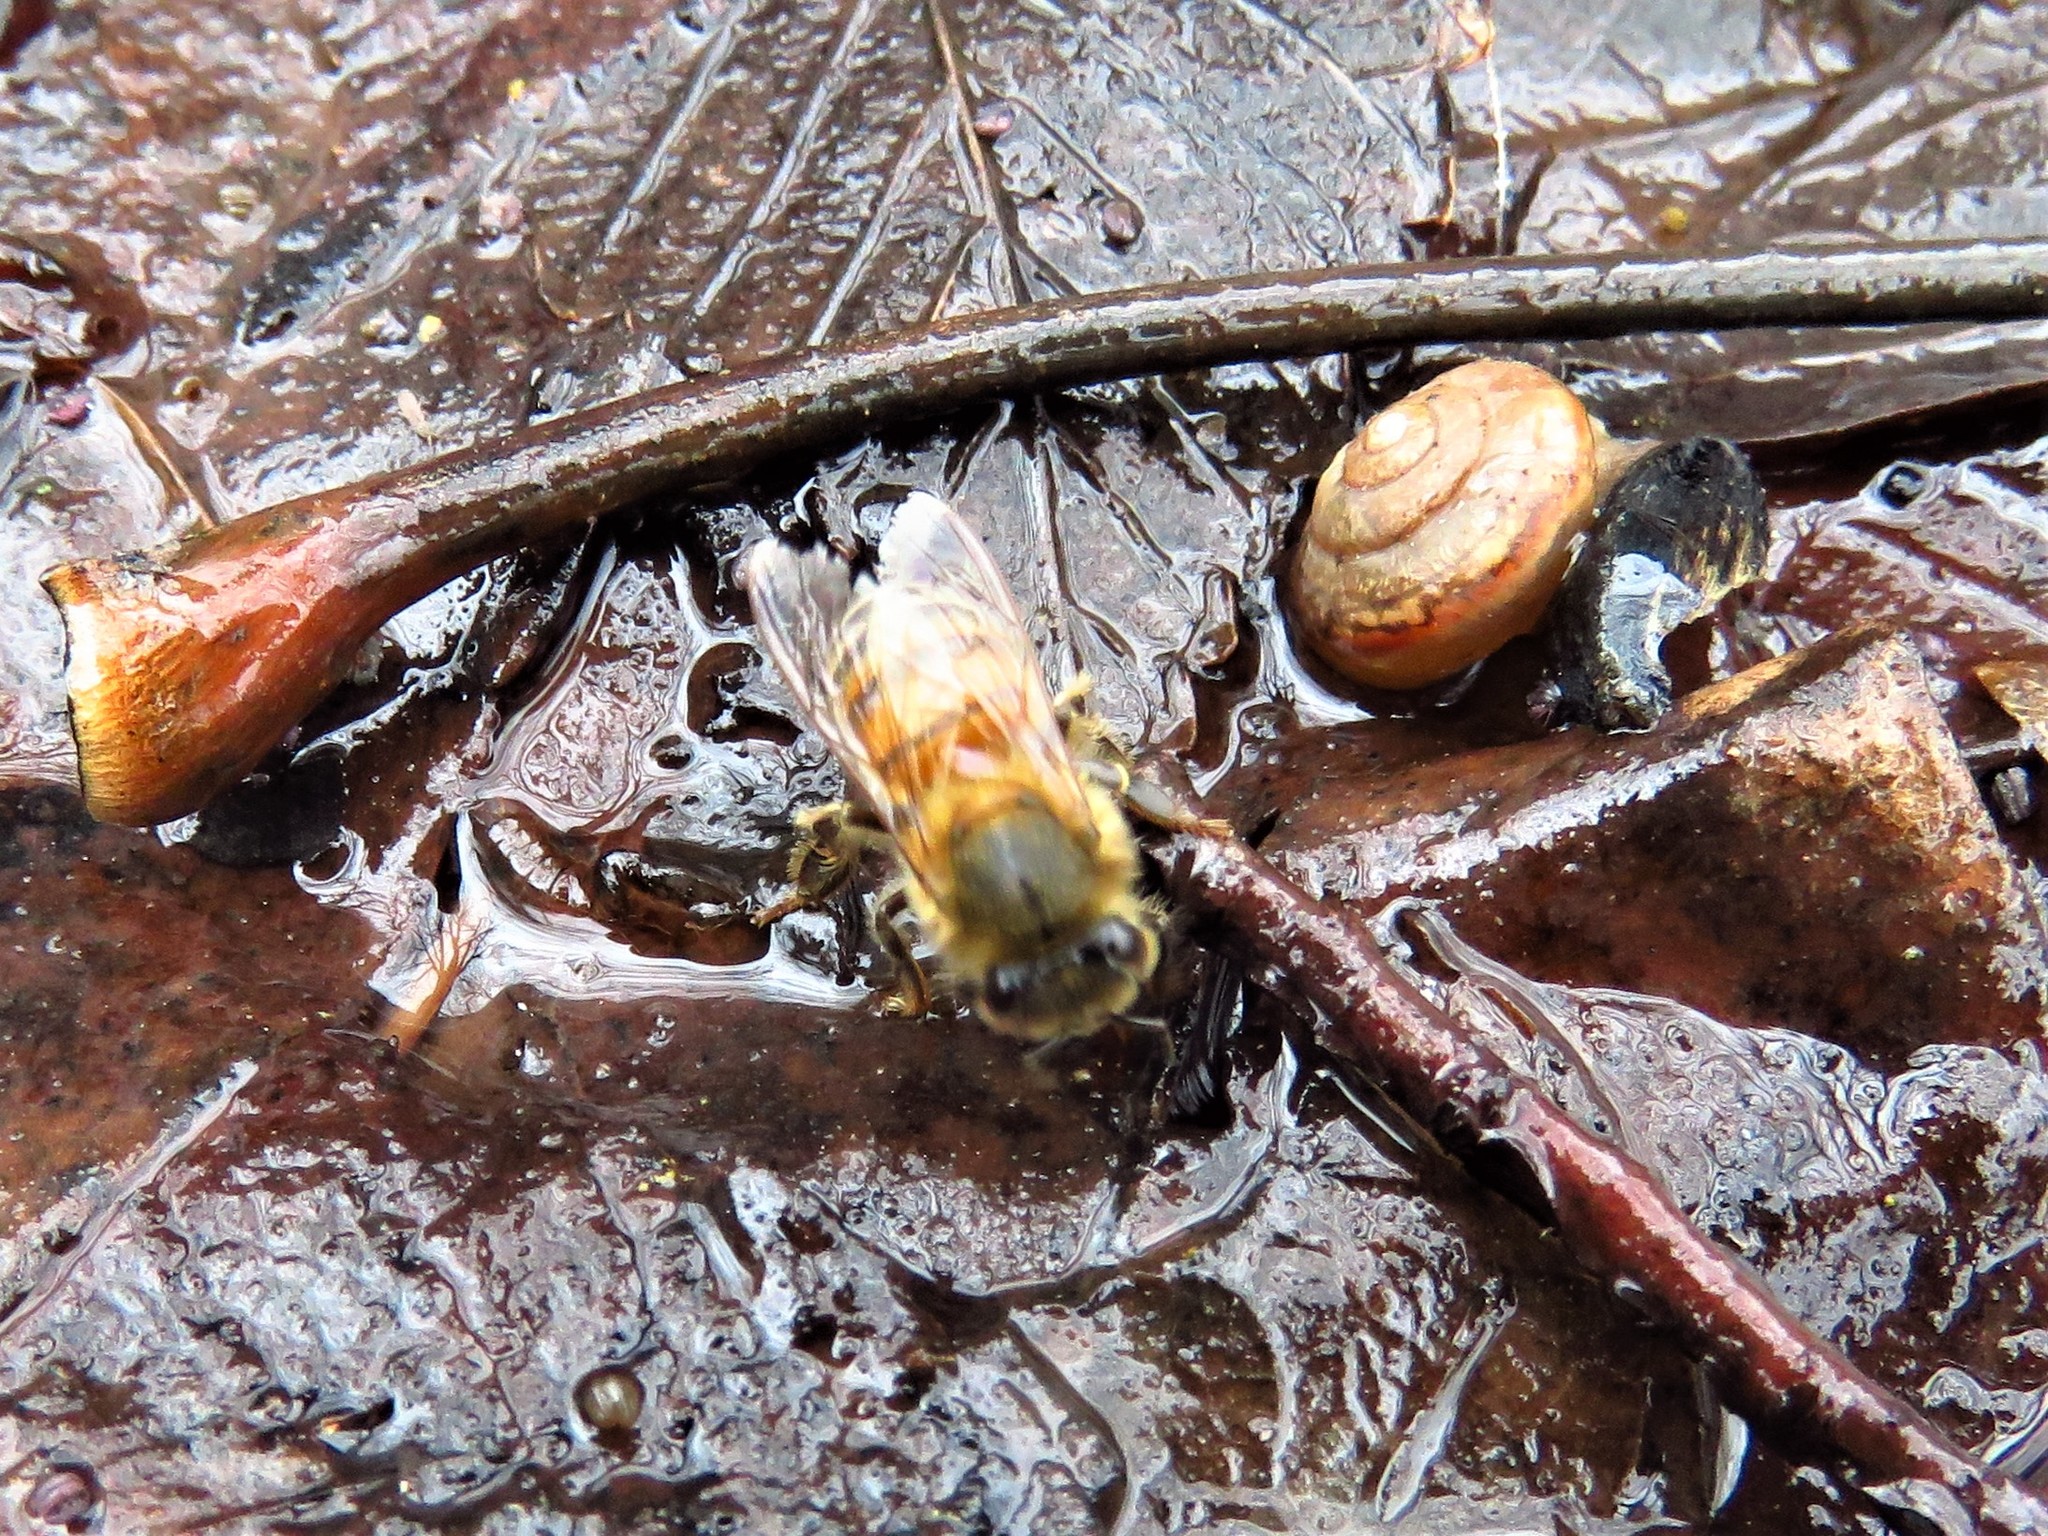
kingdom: Animalia
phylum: Arthropoda
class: Insecta
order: Hymenoptera
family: Apidae
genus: Apis
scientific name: Apis mellifera
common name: Honey bee
